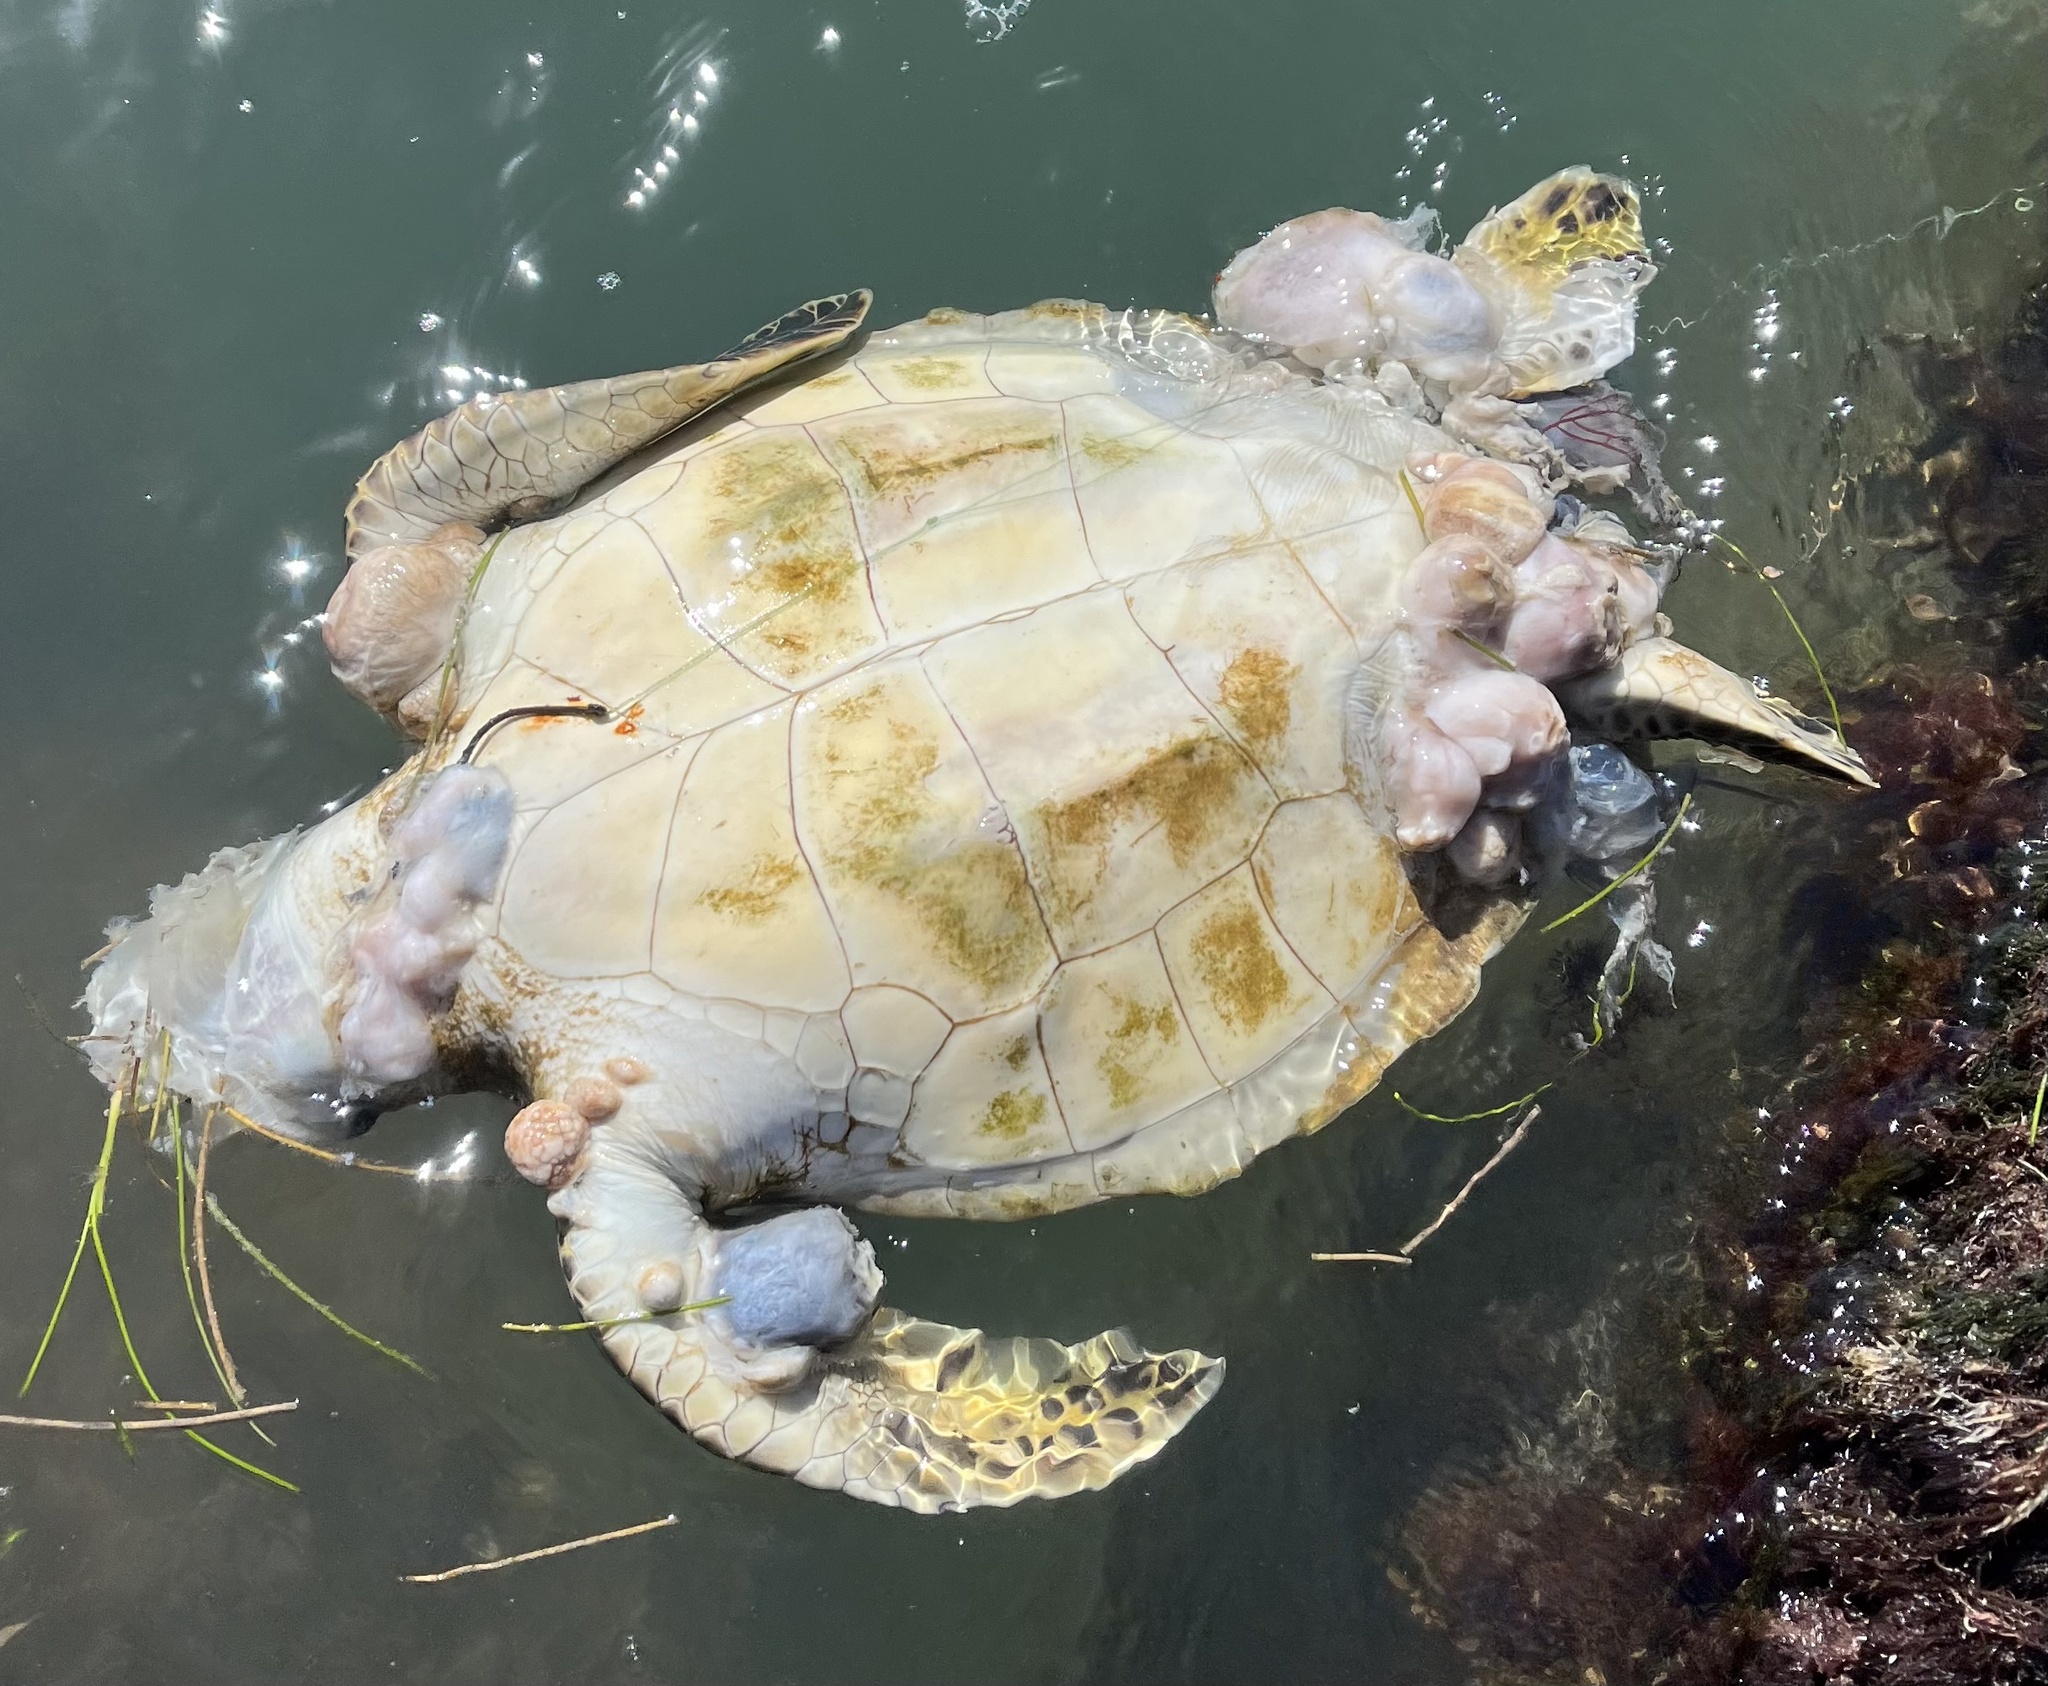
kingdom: Animalia
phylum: Chordata
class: Testudines
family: Cheloniidae
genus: Chelonia
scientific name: Chelonia mydas
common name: Green turtle
